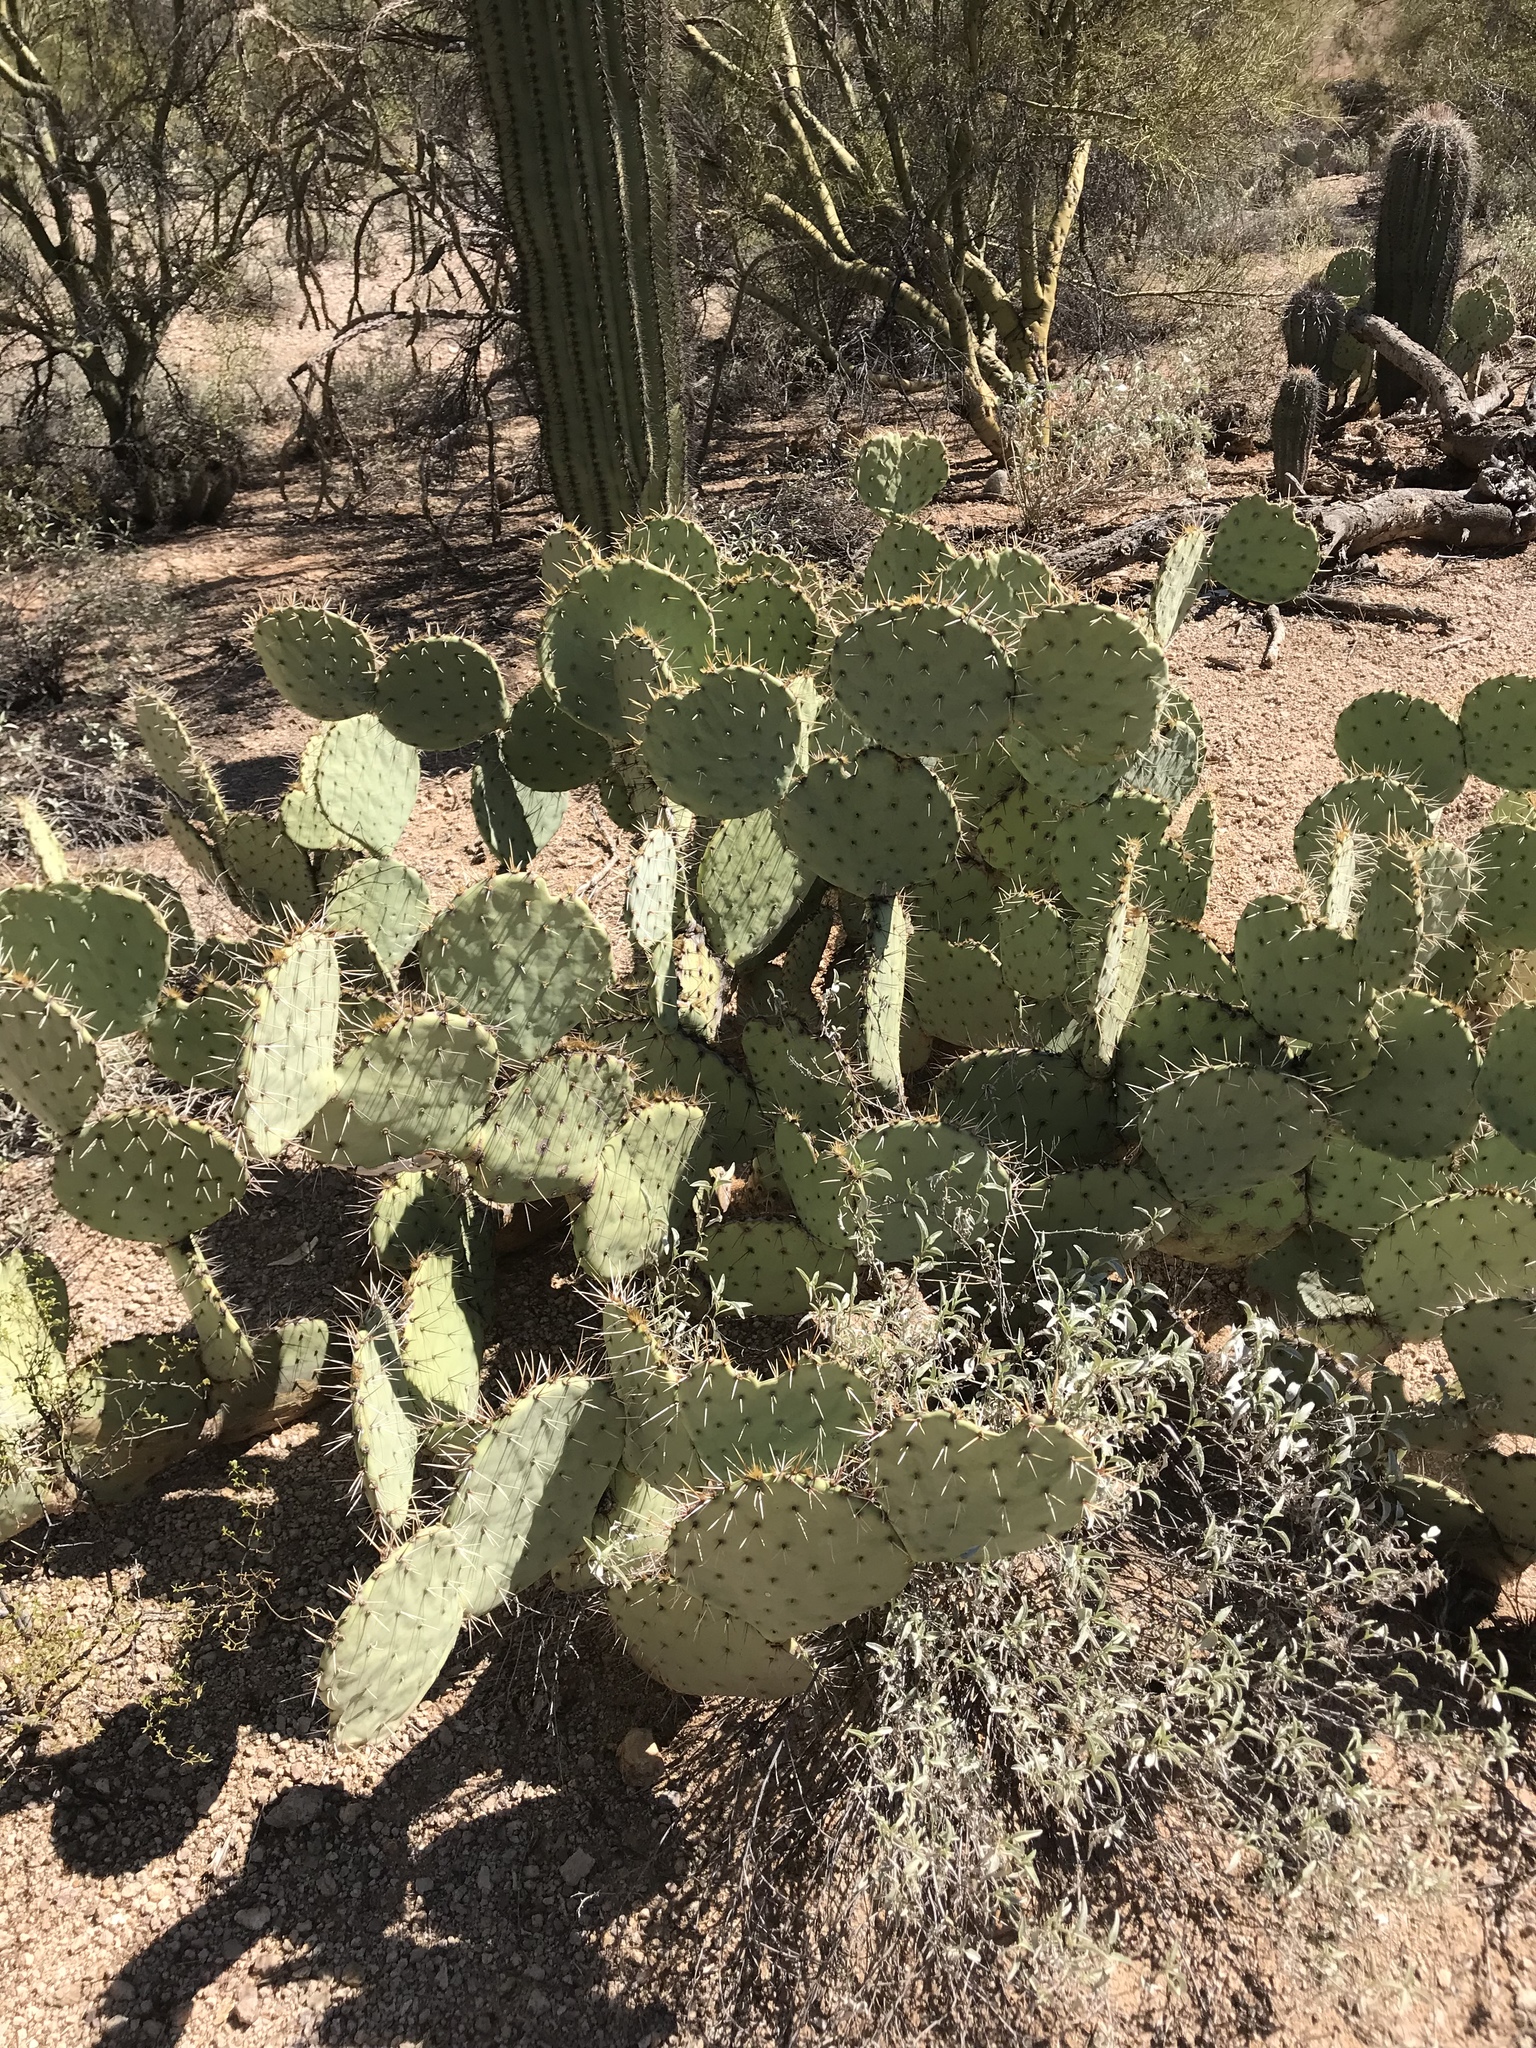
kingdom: Plantae
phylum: Tracheophyta
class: Magnoliopsida
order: Caryophyllales
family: Cactaceae
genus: Opuntia
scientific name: Opuntia engelmannii
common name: Cactus-apple
